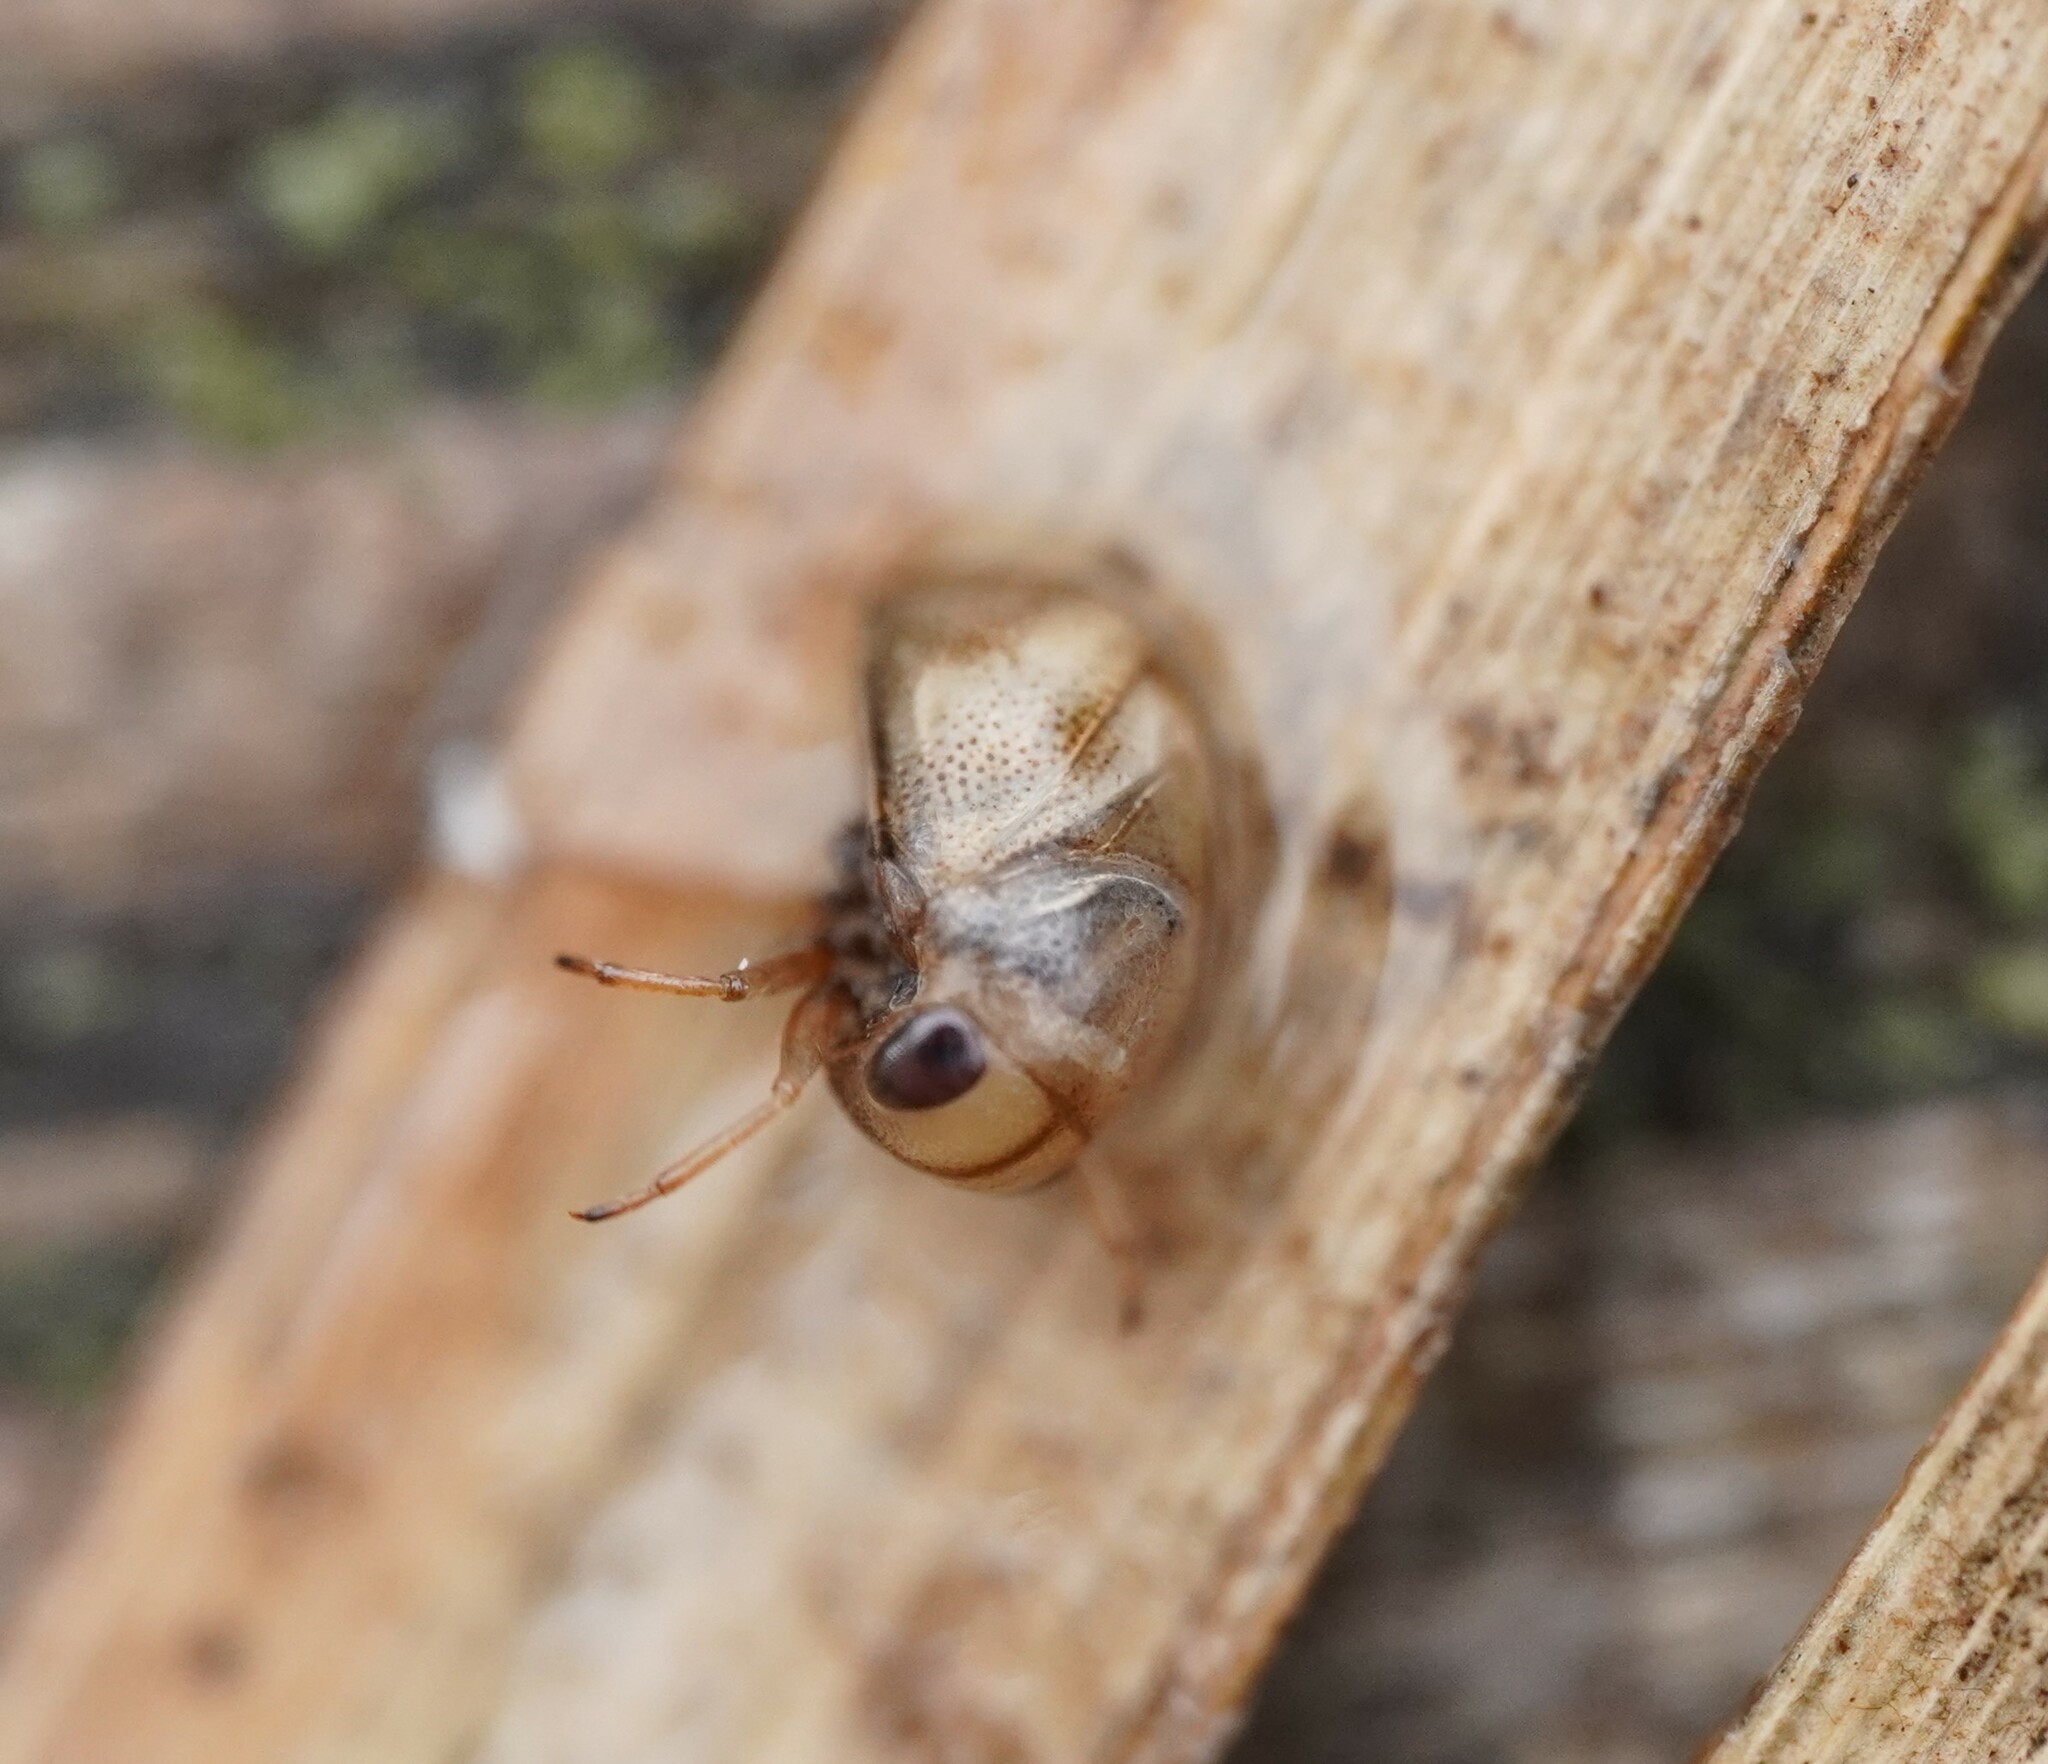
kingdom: Animalia
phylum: Arthropoda
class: Insecta
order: Hemiptera
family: Pleidae
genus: Plea
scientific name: Plea minutissima
